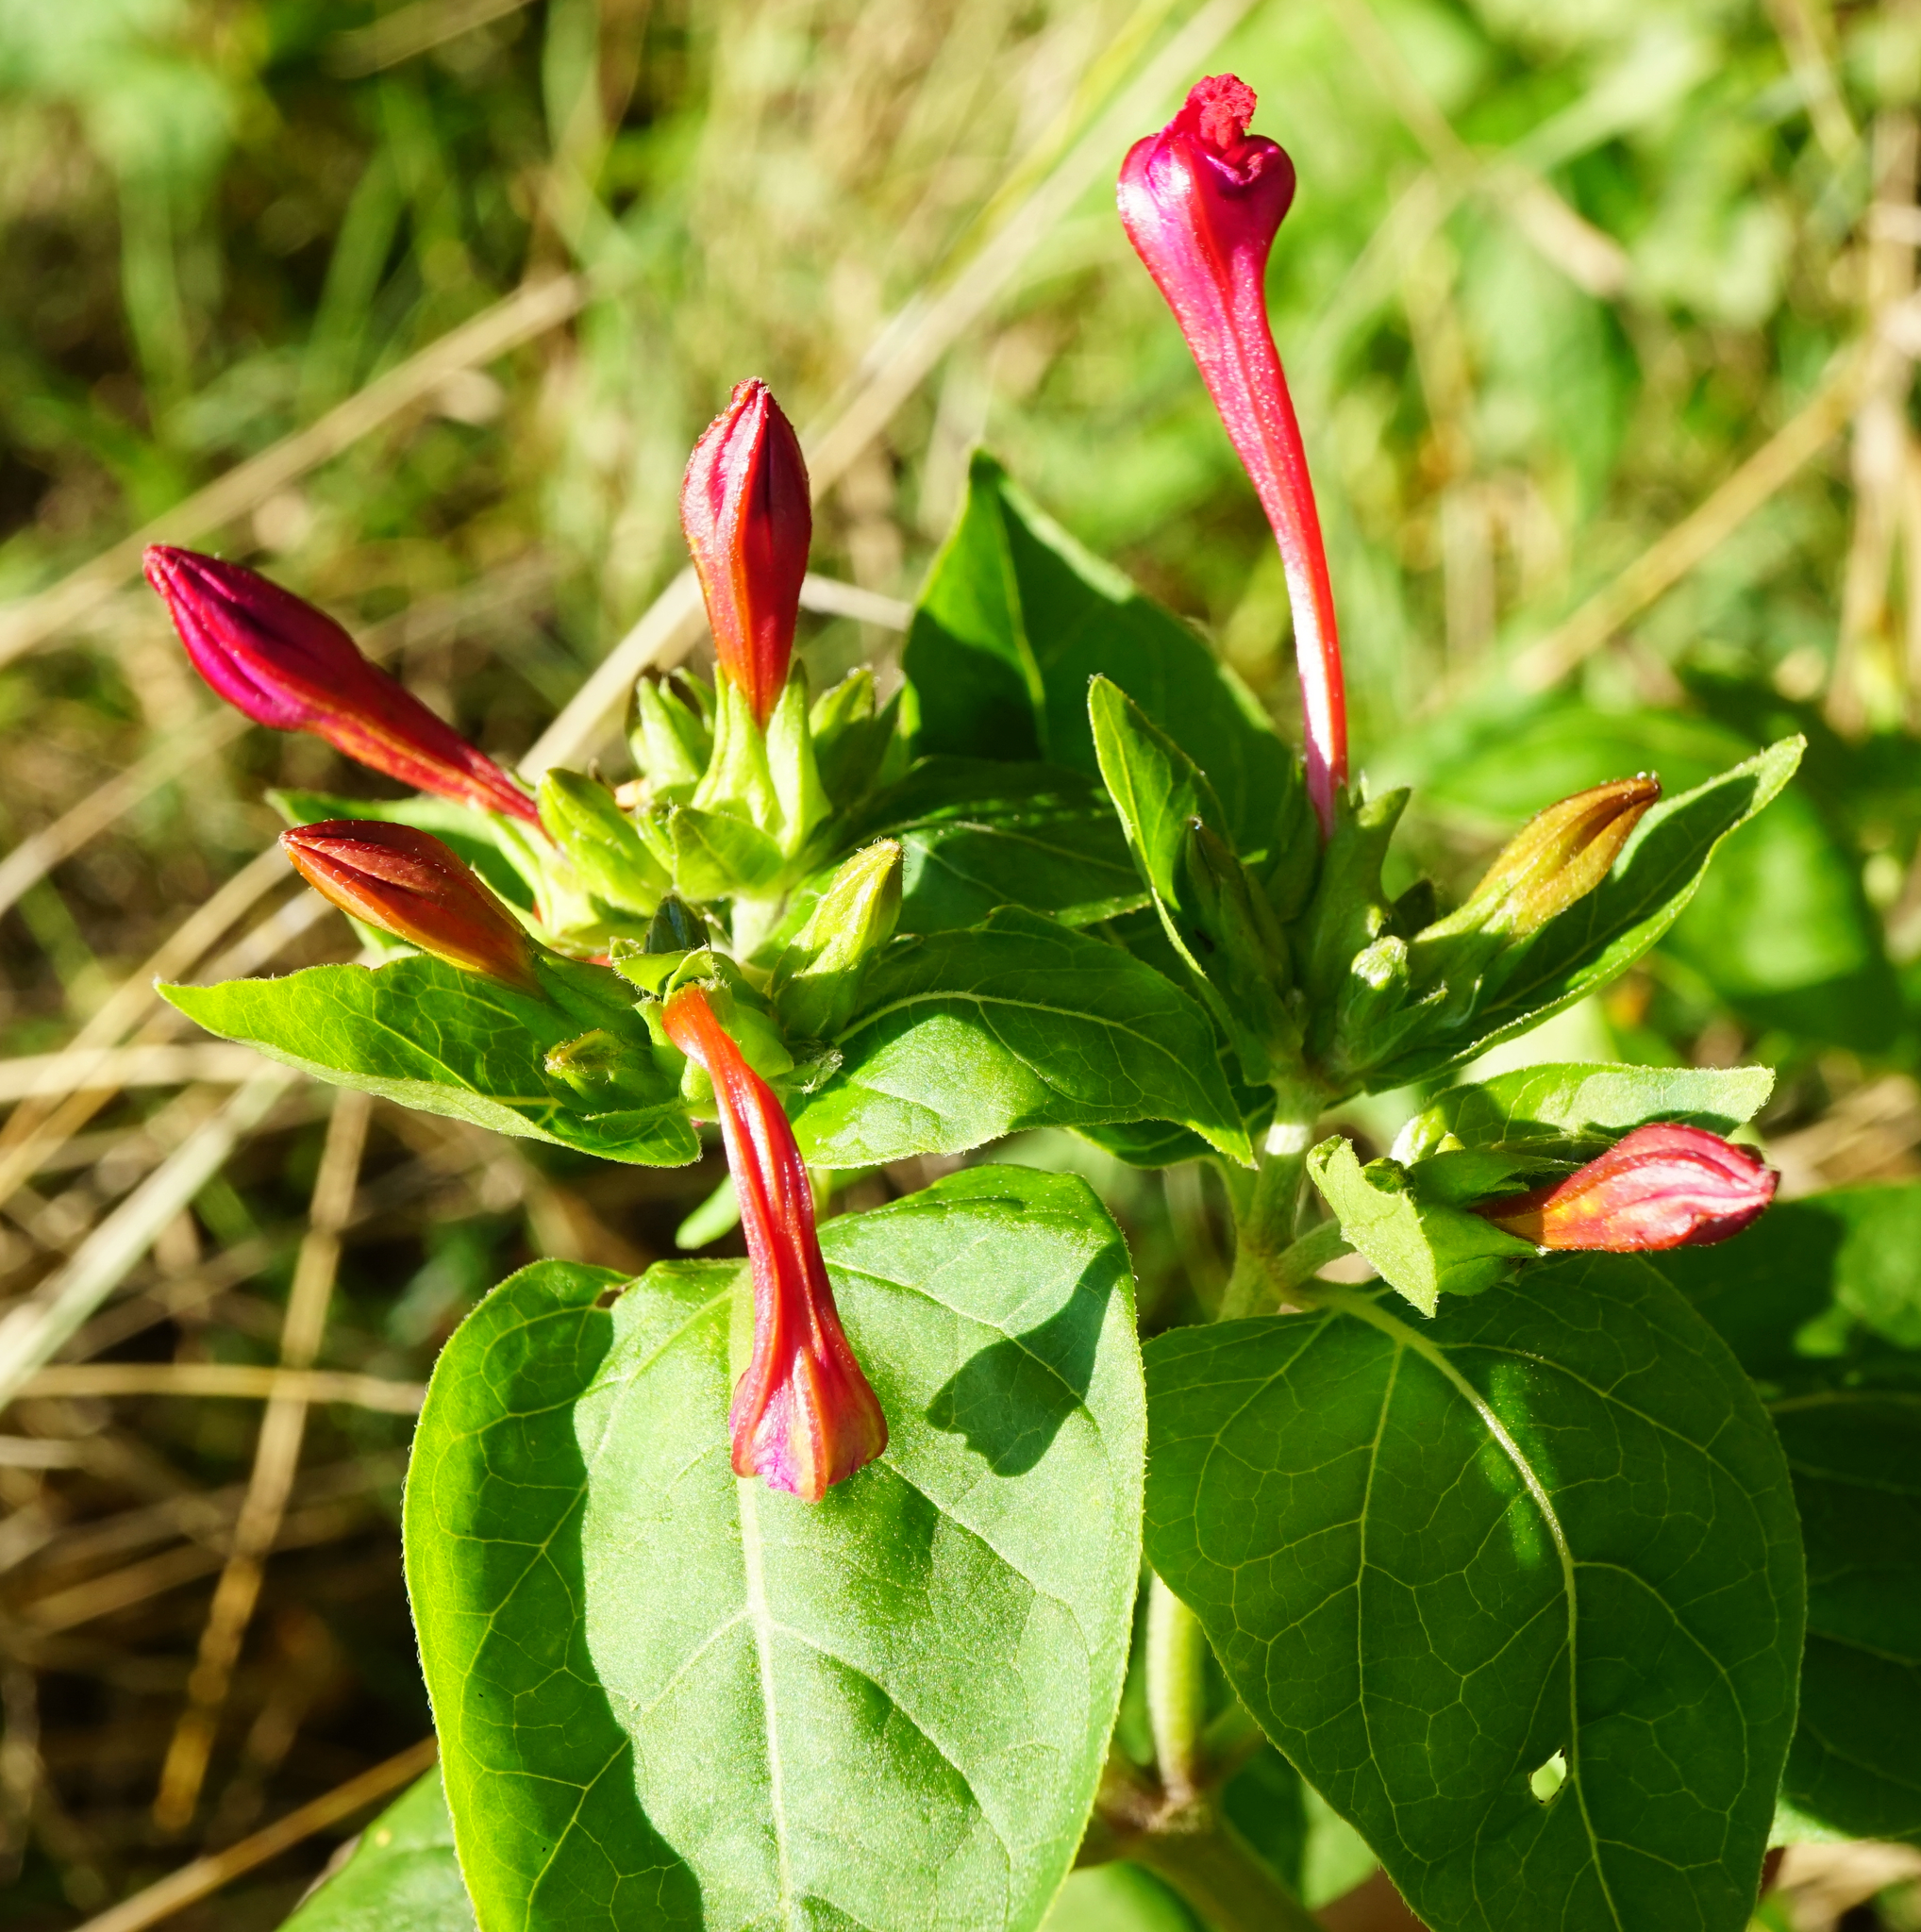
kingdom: Plantae
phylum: Tracheophyta
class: Magnoliopsida
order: Caryophyllales
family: Nyctaginaceae
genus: Mirabilis
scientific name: Mirabilis jalapa
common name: Marvel-of-peru
